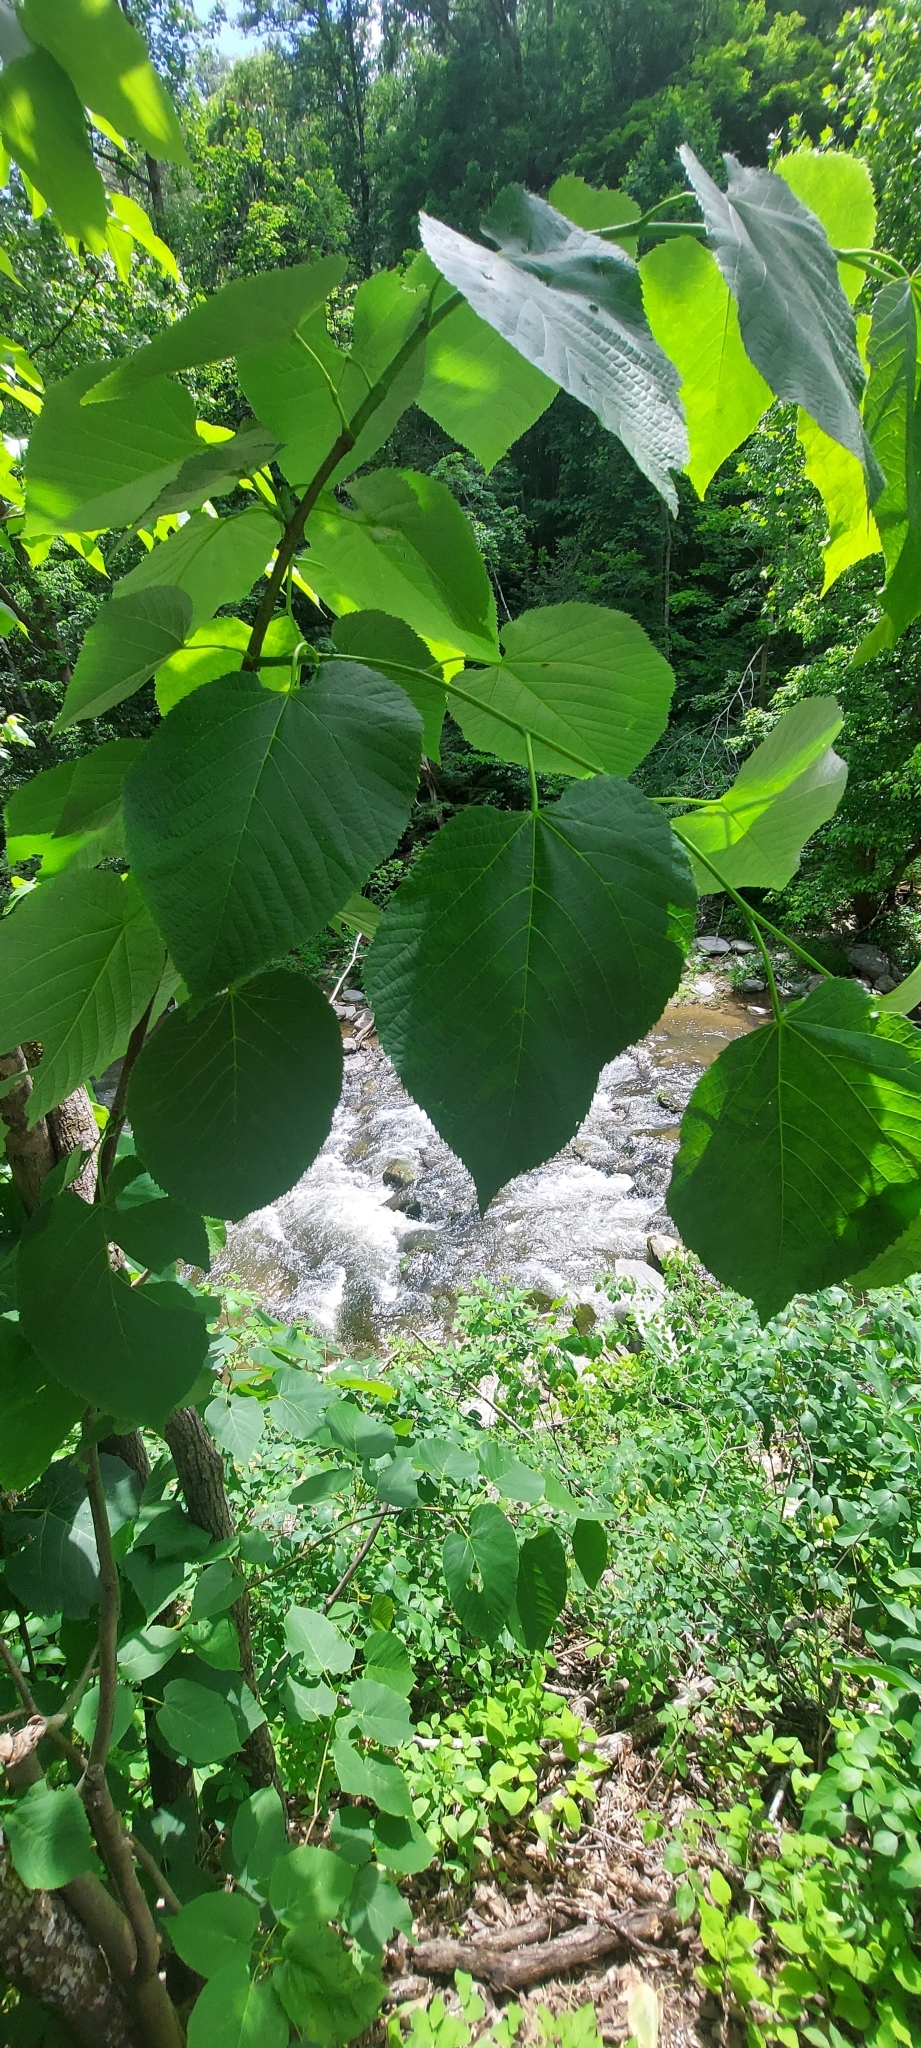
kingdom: Plantae
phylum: Tracheophyta
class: Magnoliopsida
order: Malvales
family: Malvaceae
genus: Tilia
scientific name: Tilia americana
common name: Basswood
